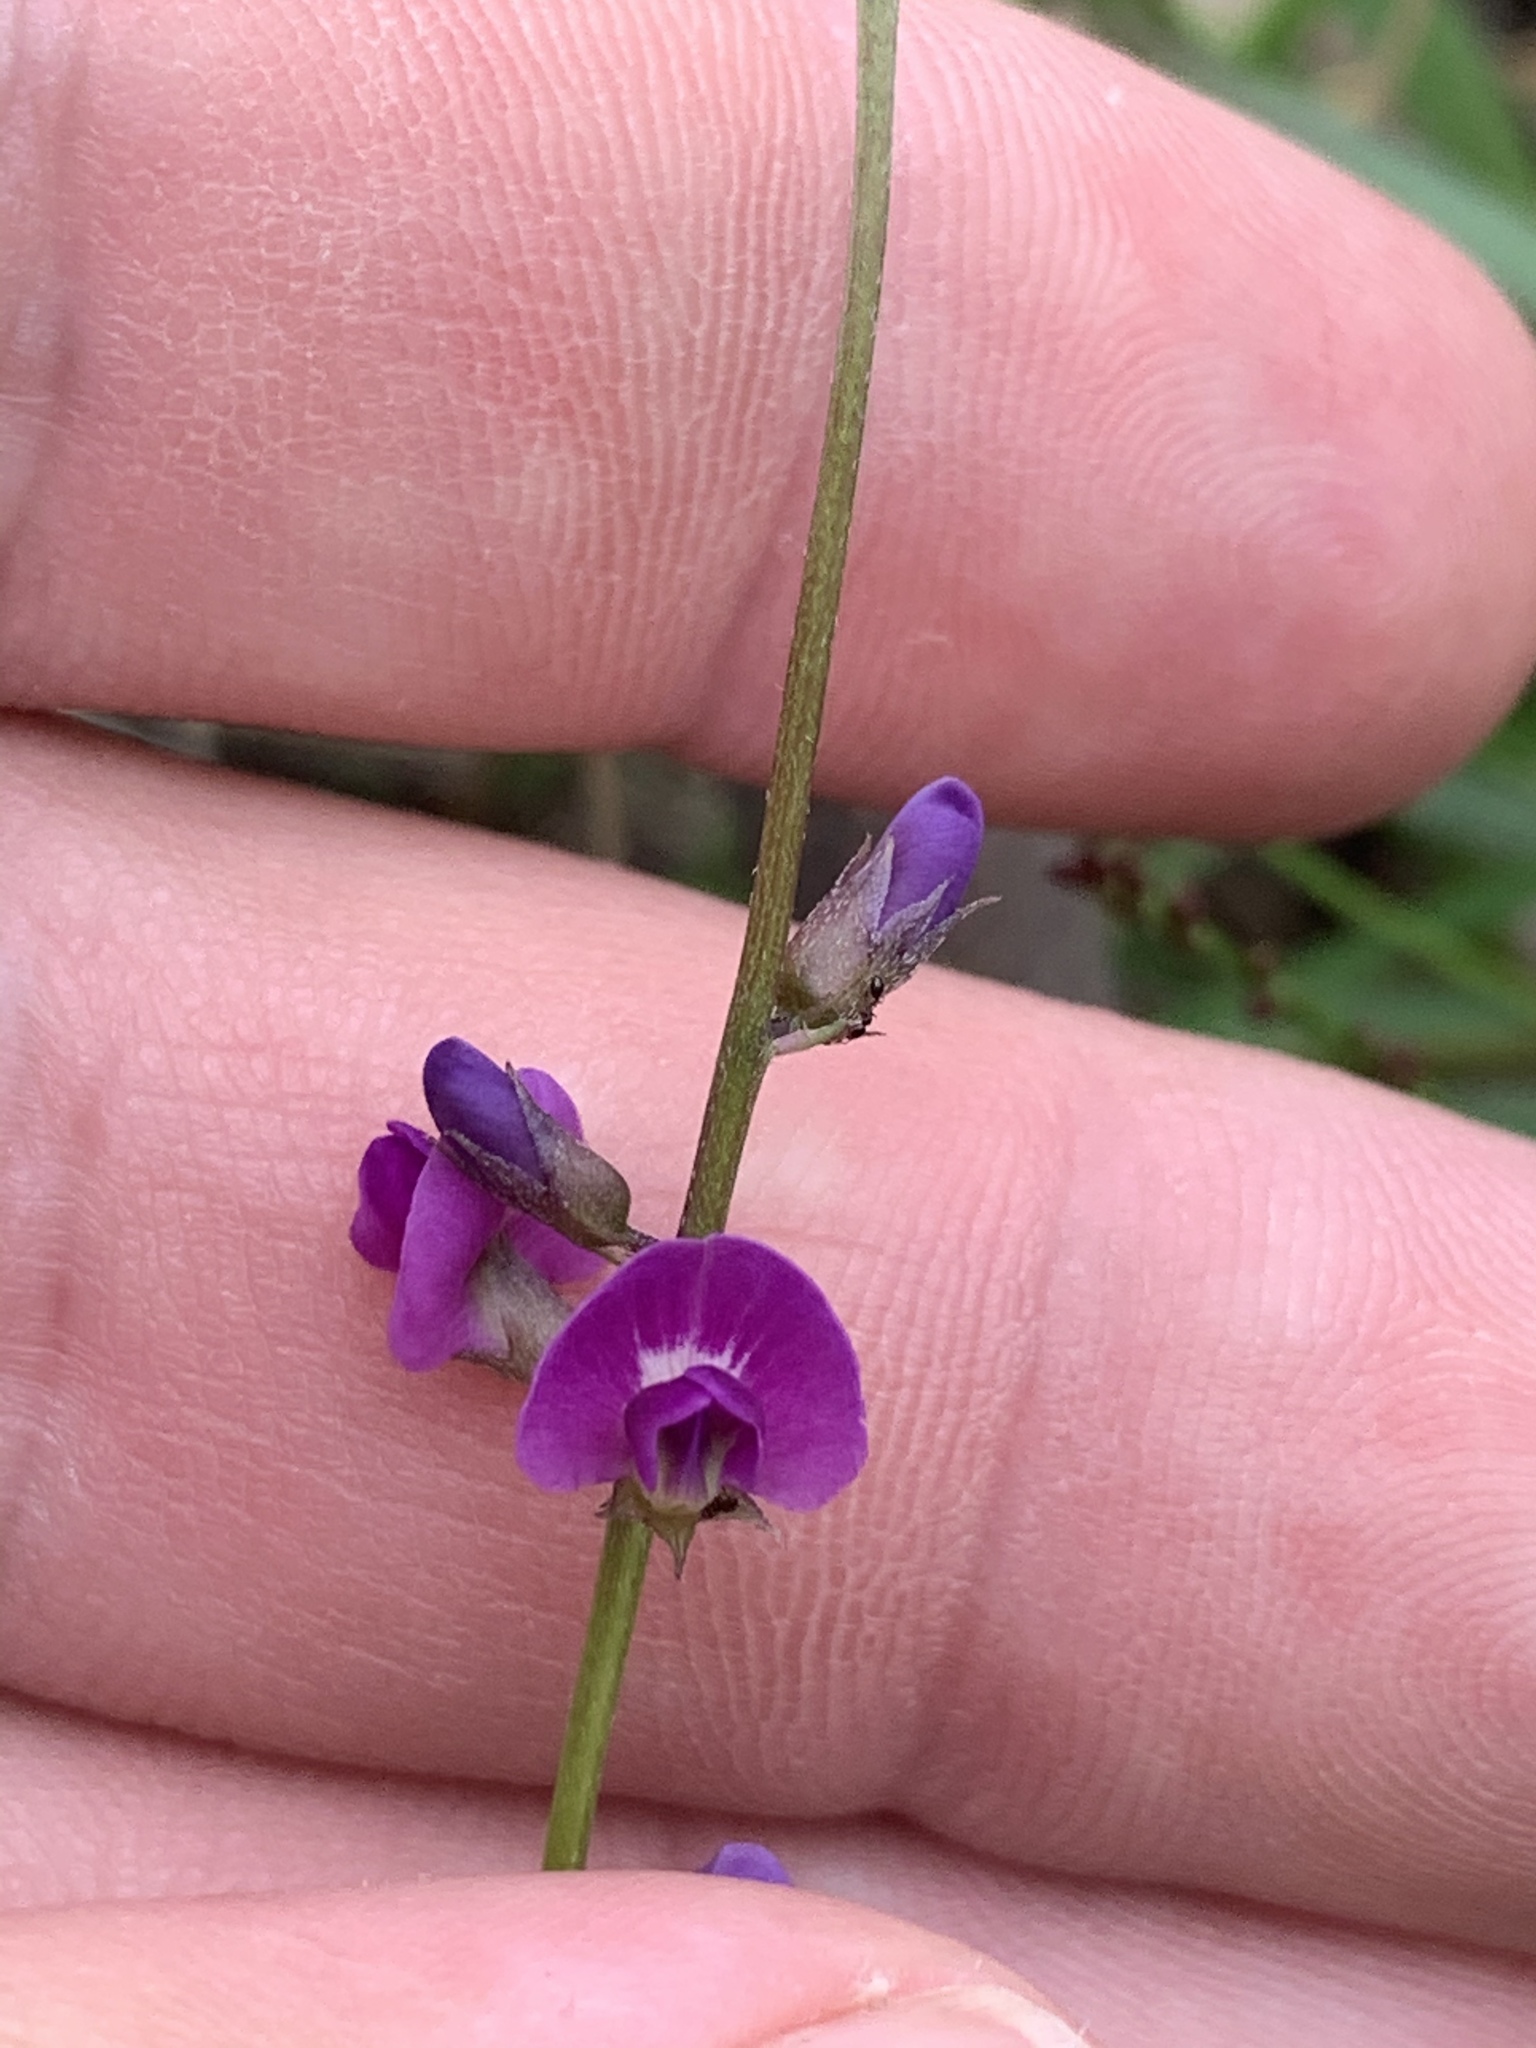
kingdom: Plantae
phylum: Tracheophyta
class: Magnoliopsida
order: Fabales
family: Fabaceae
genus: Glycine
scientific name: Glycine clandestina
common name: Twining glycine
